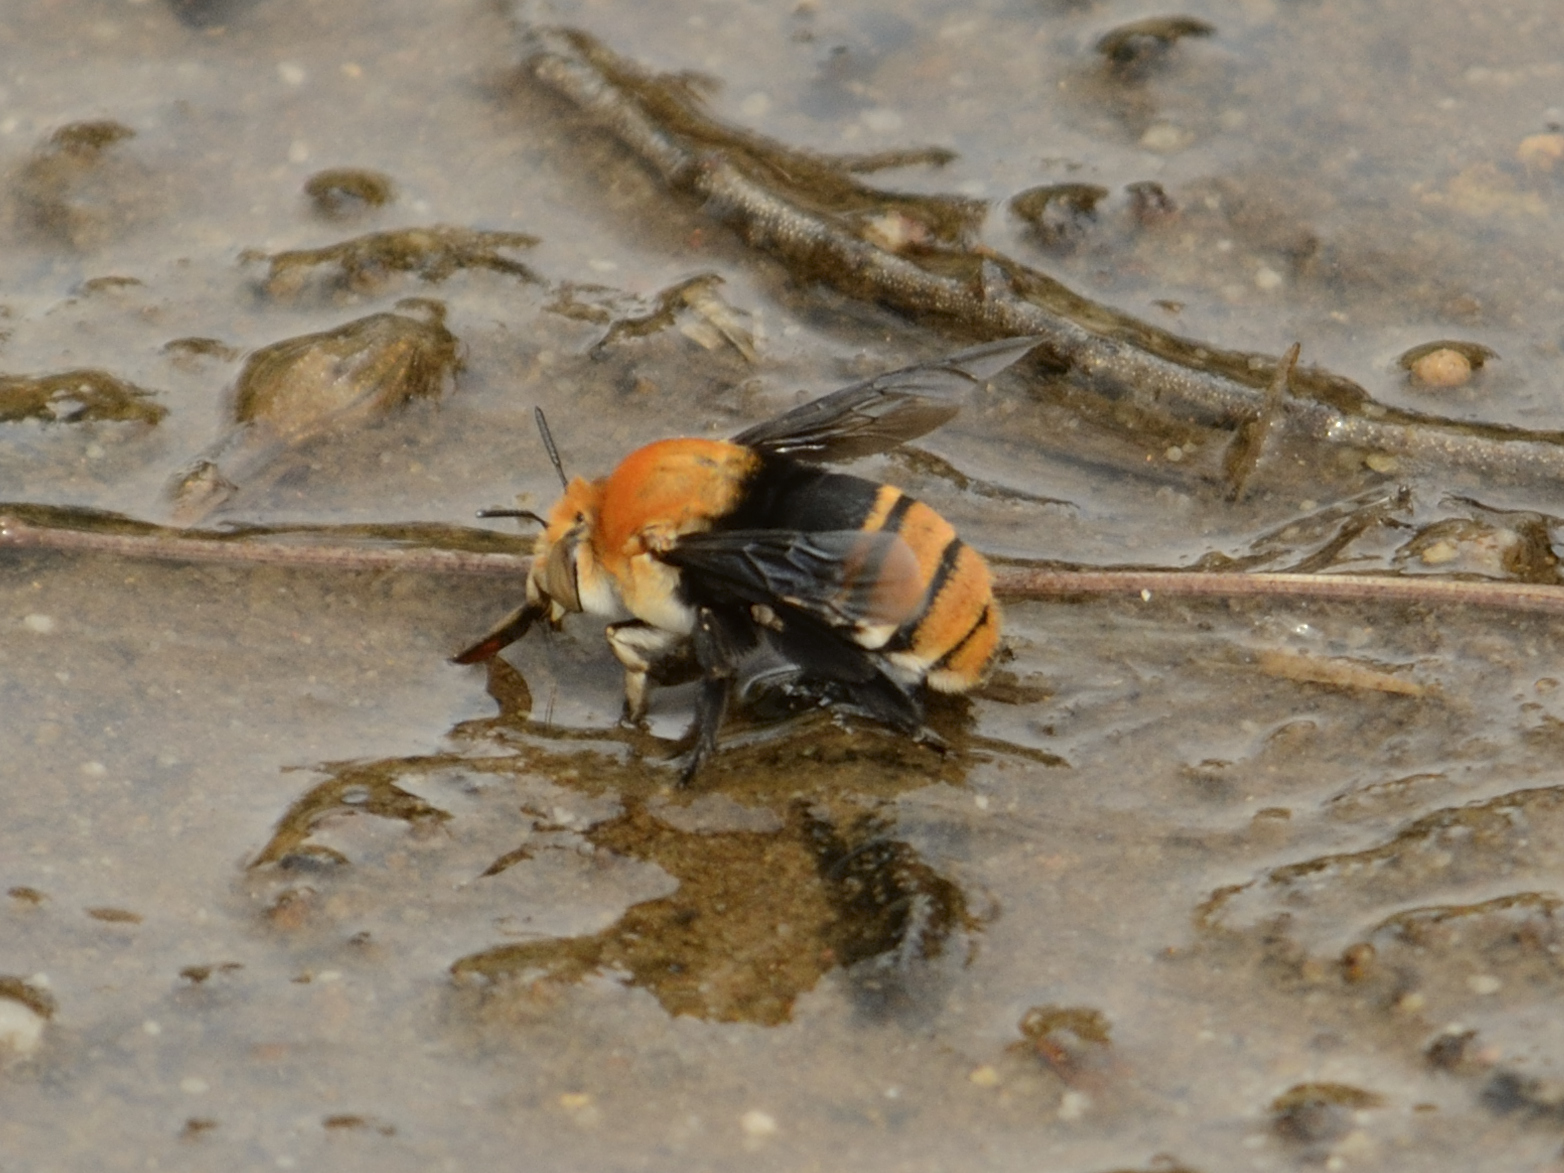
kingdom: Animalia
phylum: Arthropoda
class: Insecta
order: Hymenoptera
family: Apidae
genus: Amegilla
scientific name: Amegilla atrocincta
